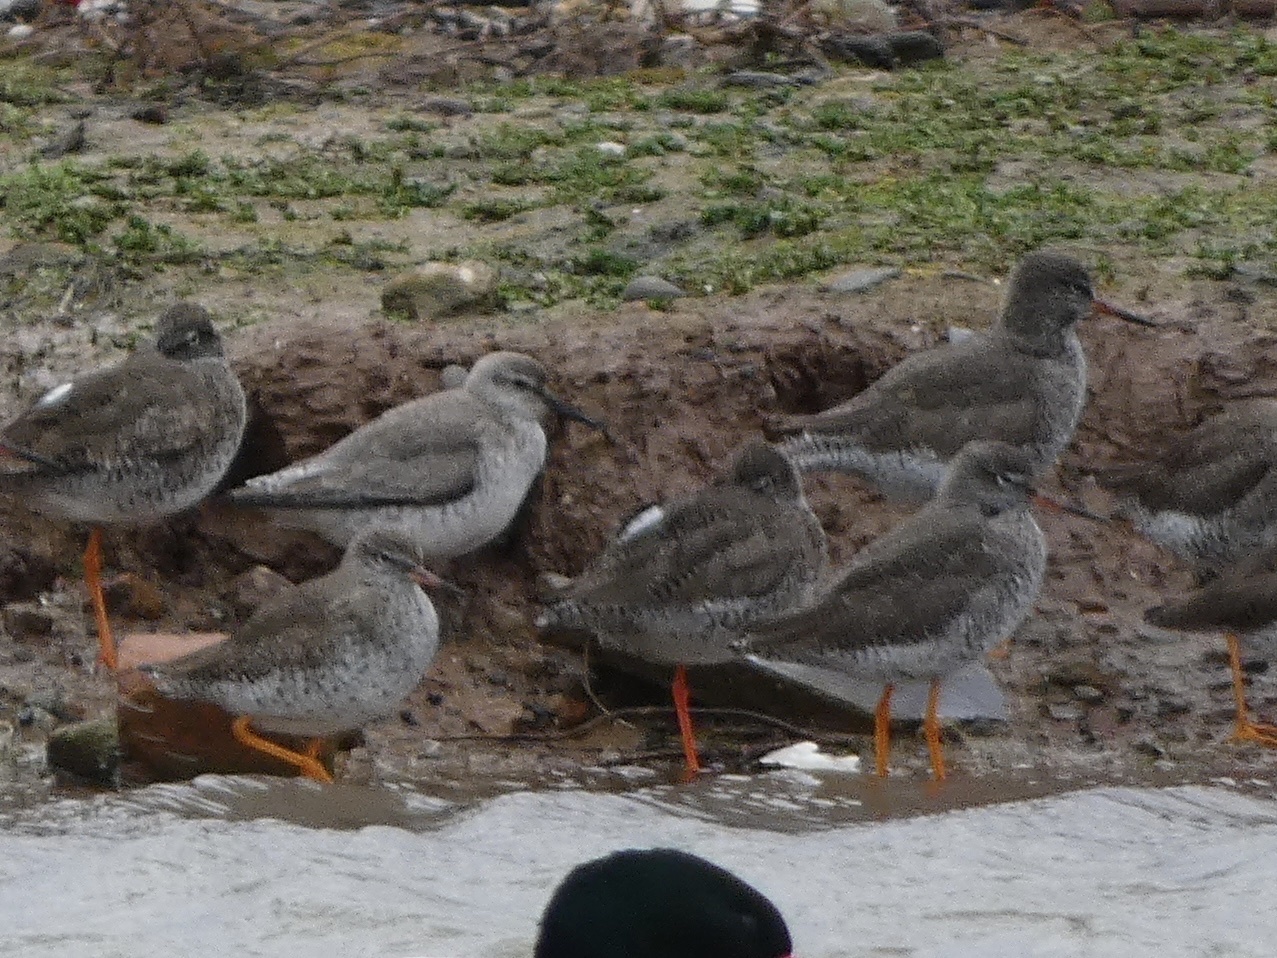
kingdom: Animalia
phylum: Chordata
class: Aves
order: Charadriiformes
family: Scolopacidae
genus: Calidris
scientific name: Calidris canutus
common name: Red knot
